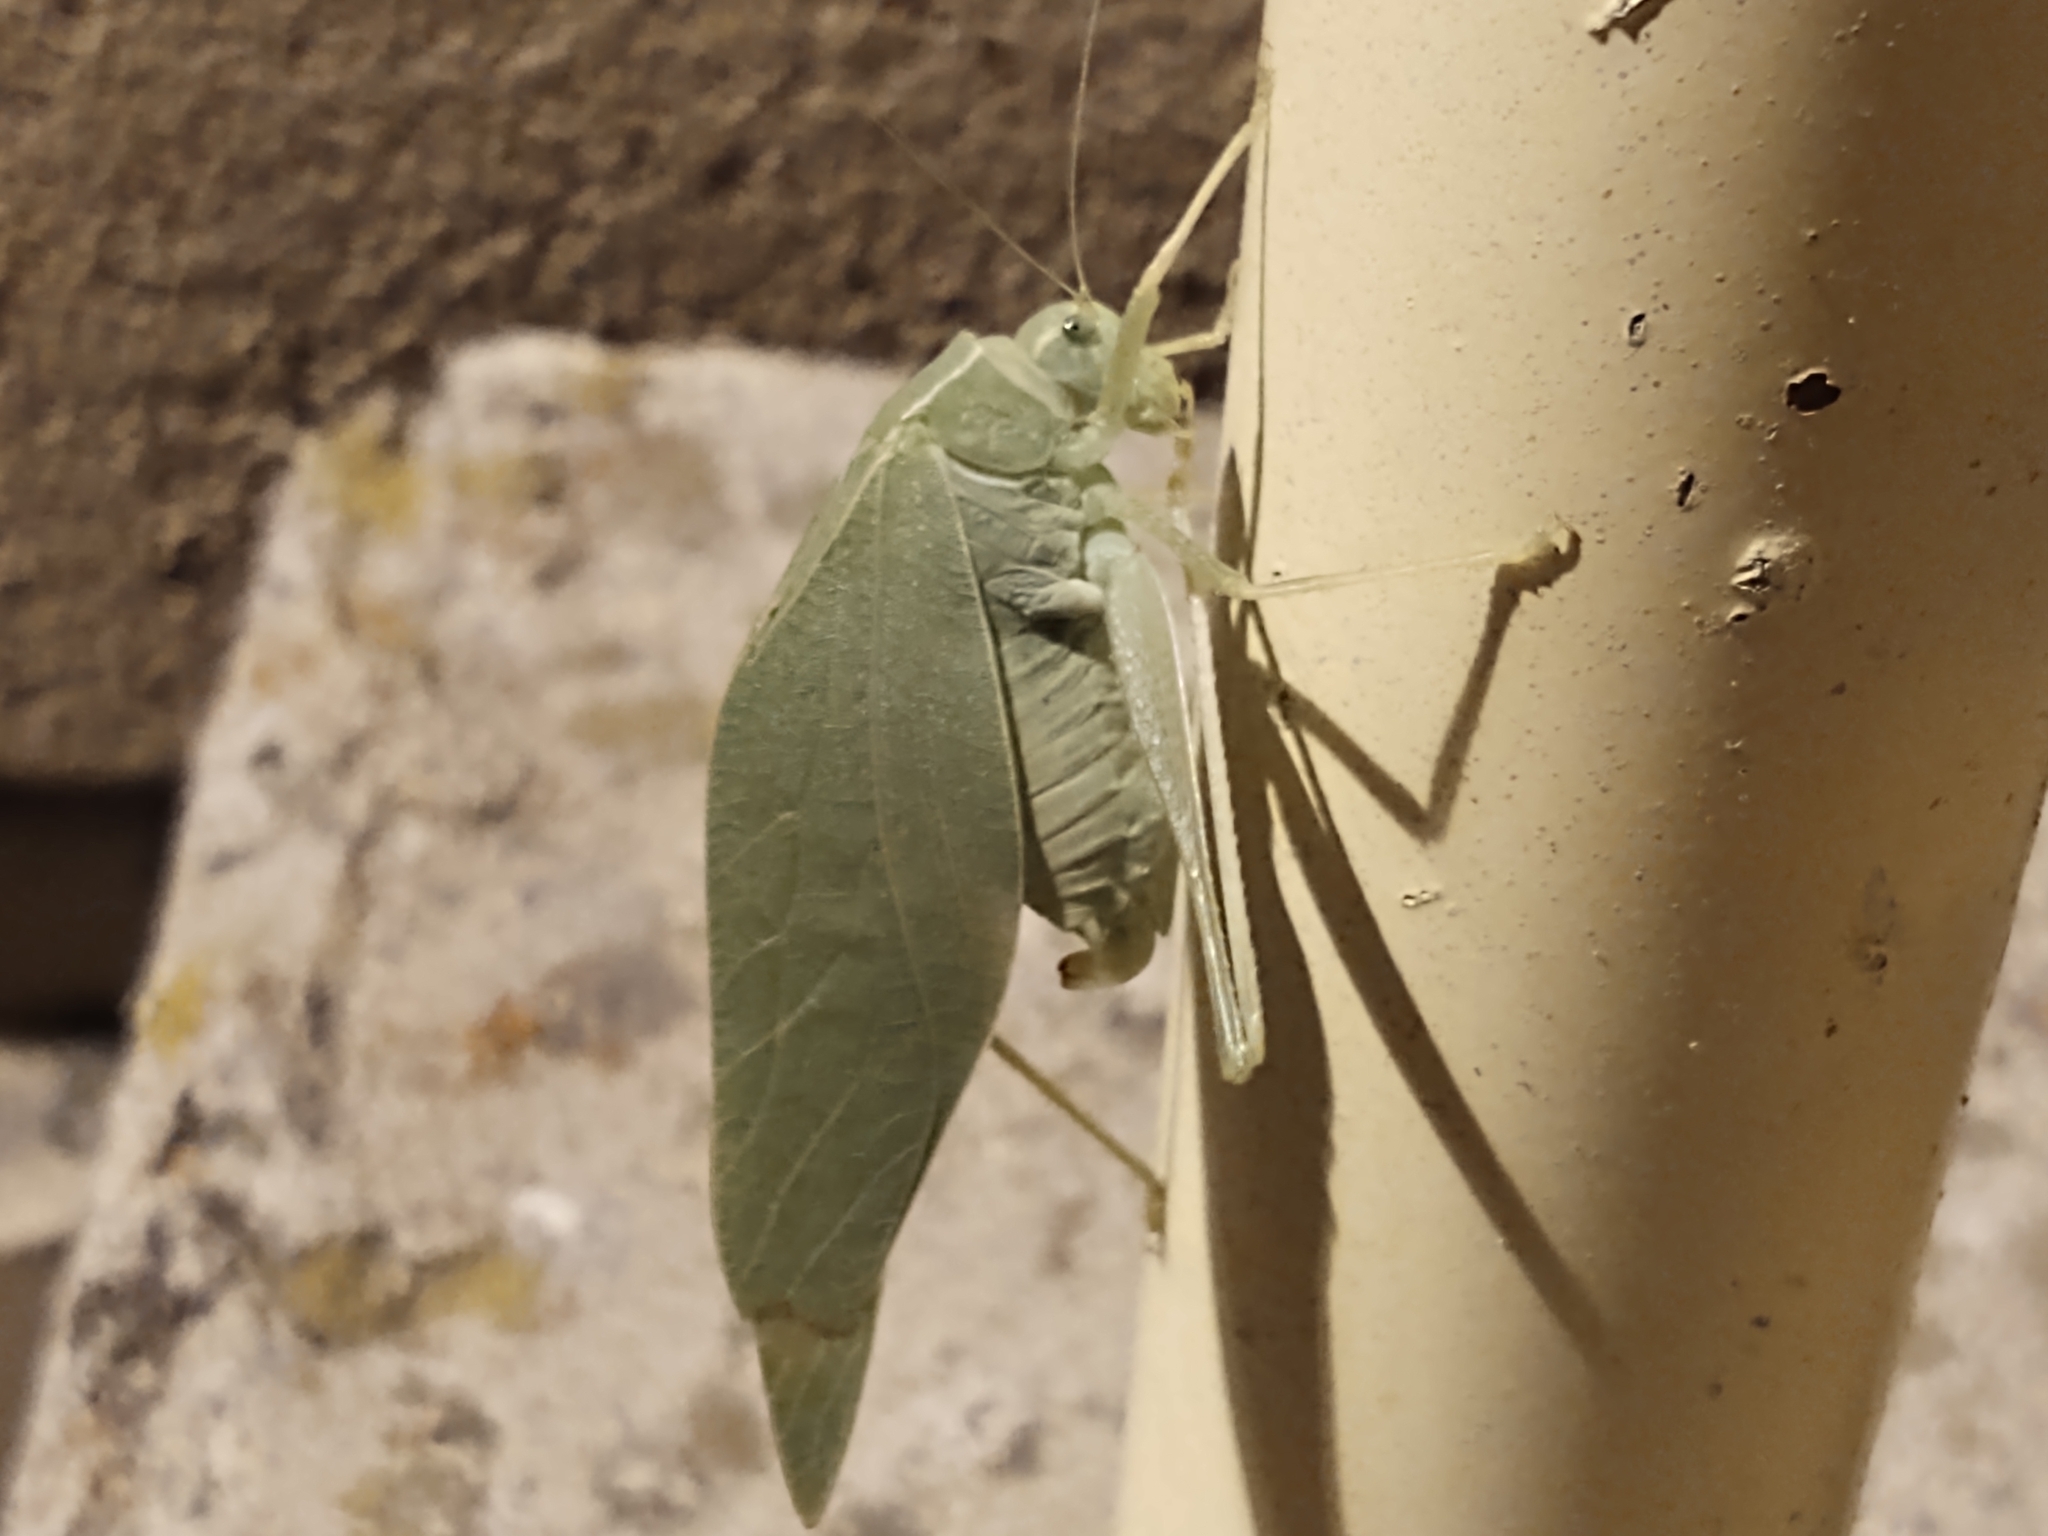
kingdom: Animalia
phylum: Arthropoda
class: Insecta
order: Orthoptera
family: Tettigoniidae
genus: Microcentrum
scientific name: Microcentrum rhombifolium
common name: Broad-winged katydid
